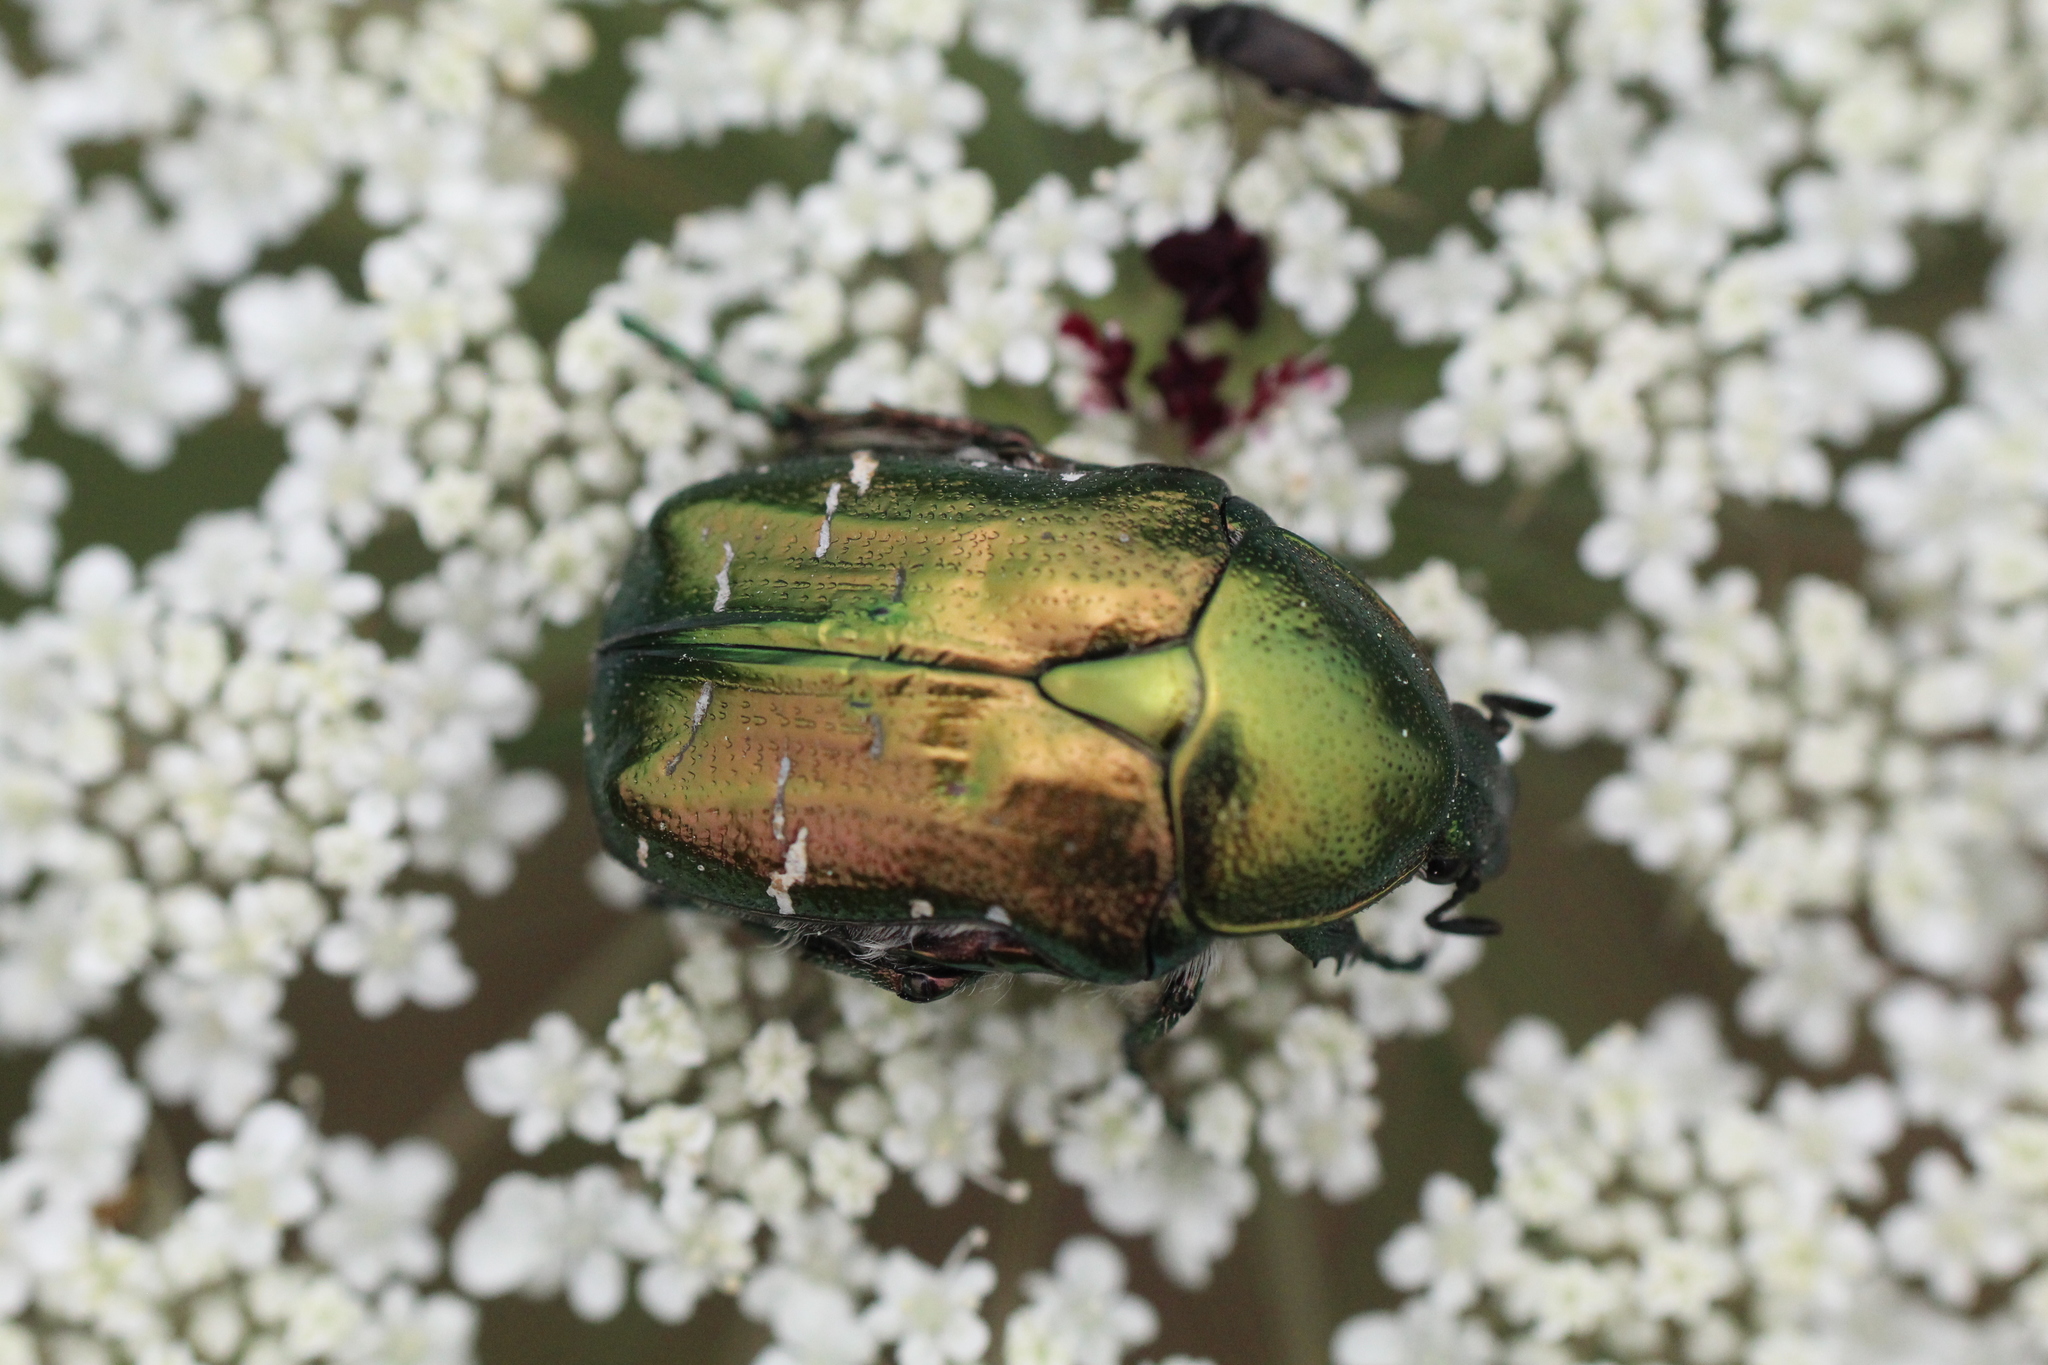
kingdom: Animalia
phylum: Arthropoda
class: Insecta
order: Coleoptera
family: Scarabaeidae
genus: Cetonia
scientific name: Cetonia aurata
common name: Rose chafer
